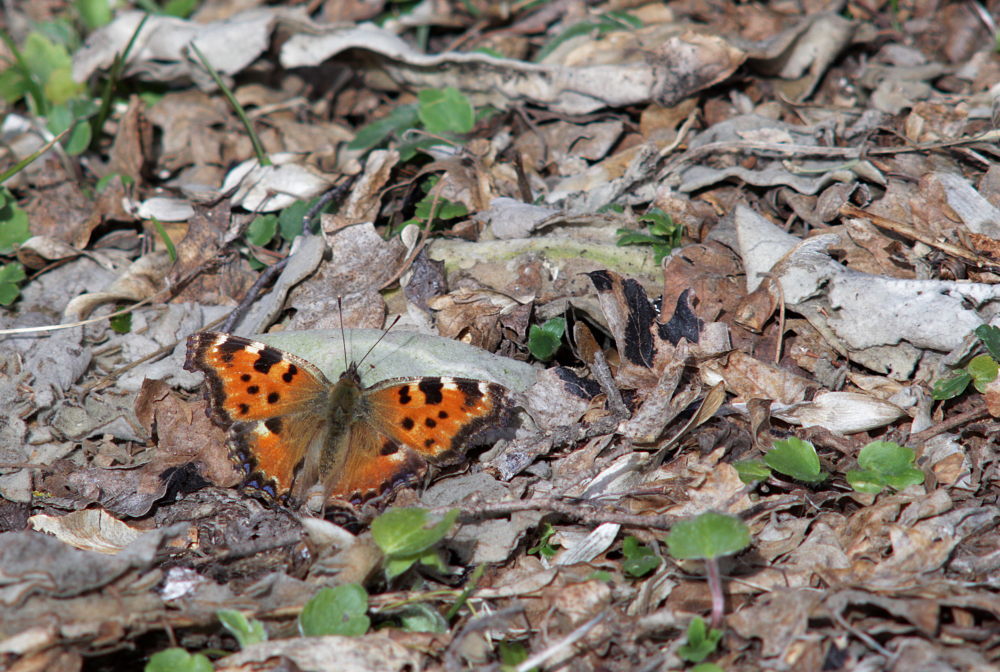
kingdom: Animalia
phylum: Arthropoda
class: Insecta
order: Lepidoptera
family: Nymphalidae
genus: Nymphalis
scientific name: Nymphalis polychloros
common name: Large tortoiseshell
